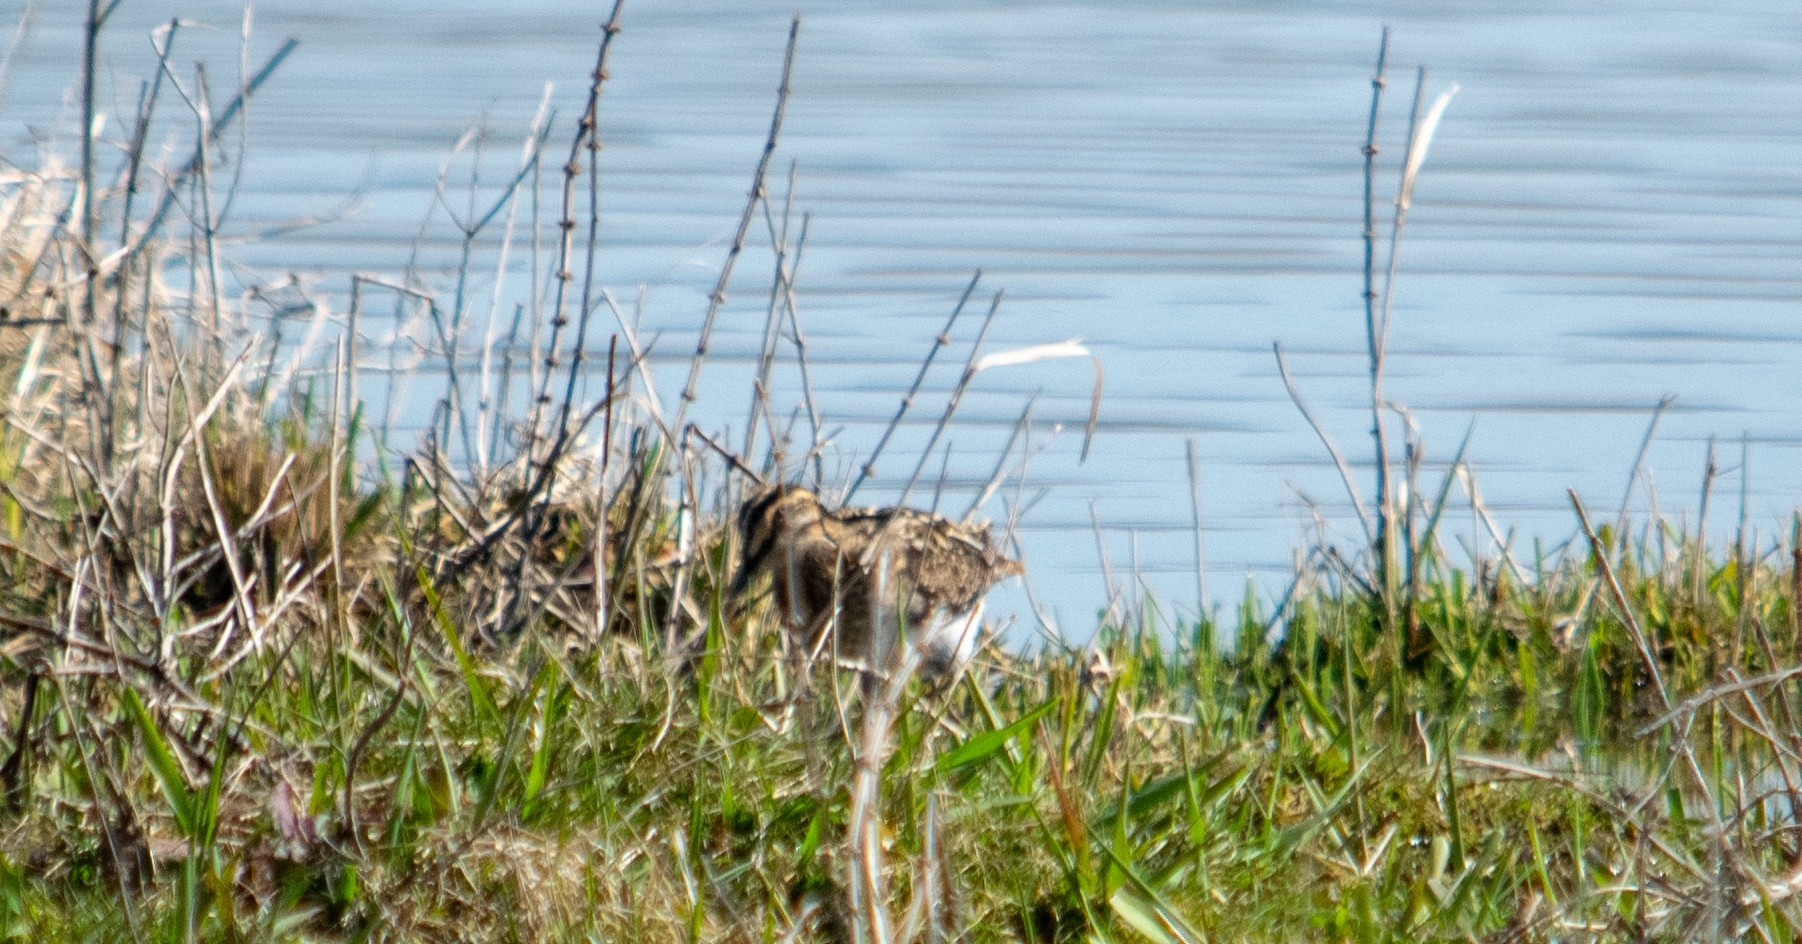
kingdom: Animalia
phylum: Chordata
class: Aves
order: Charadriiformes
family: Scolopacidae
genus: Gallinago
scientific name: Gallinago gallinago
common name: Common snipe
